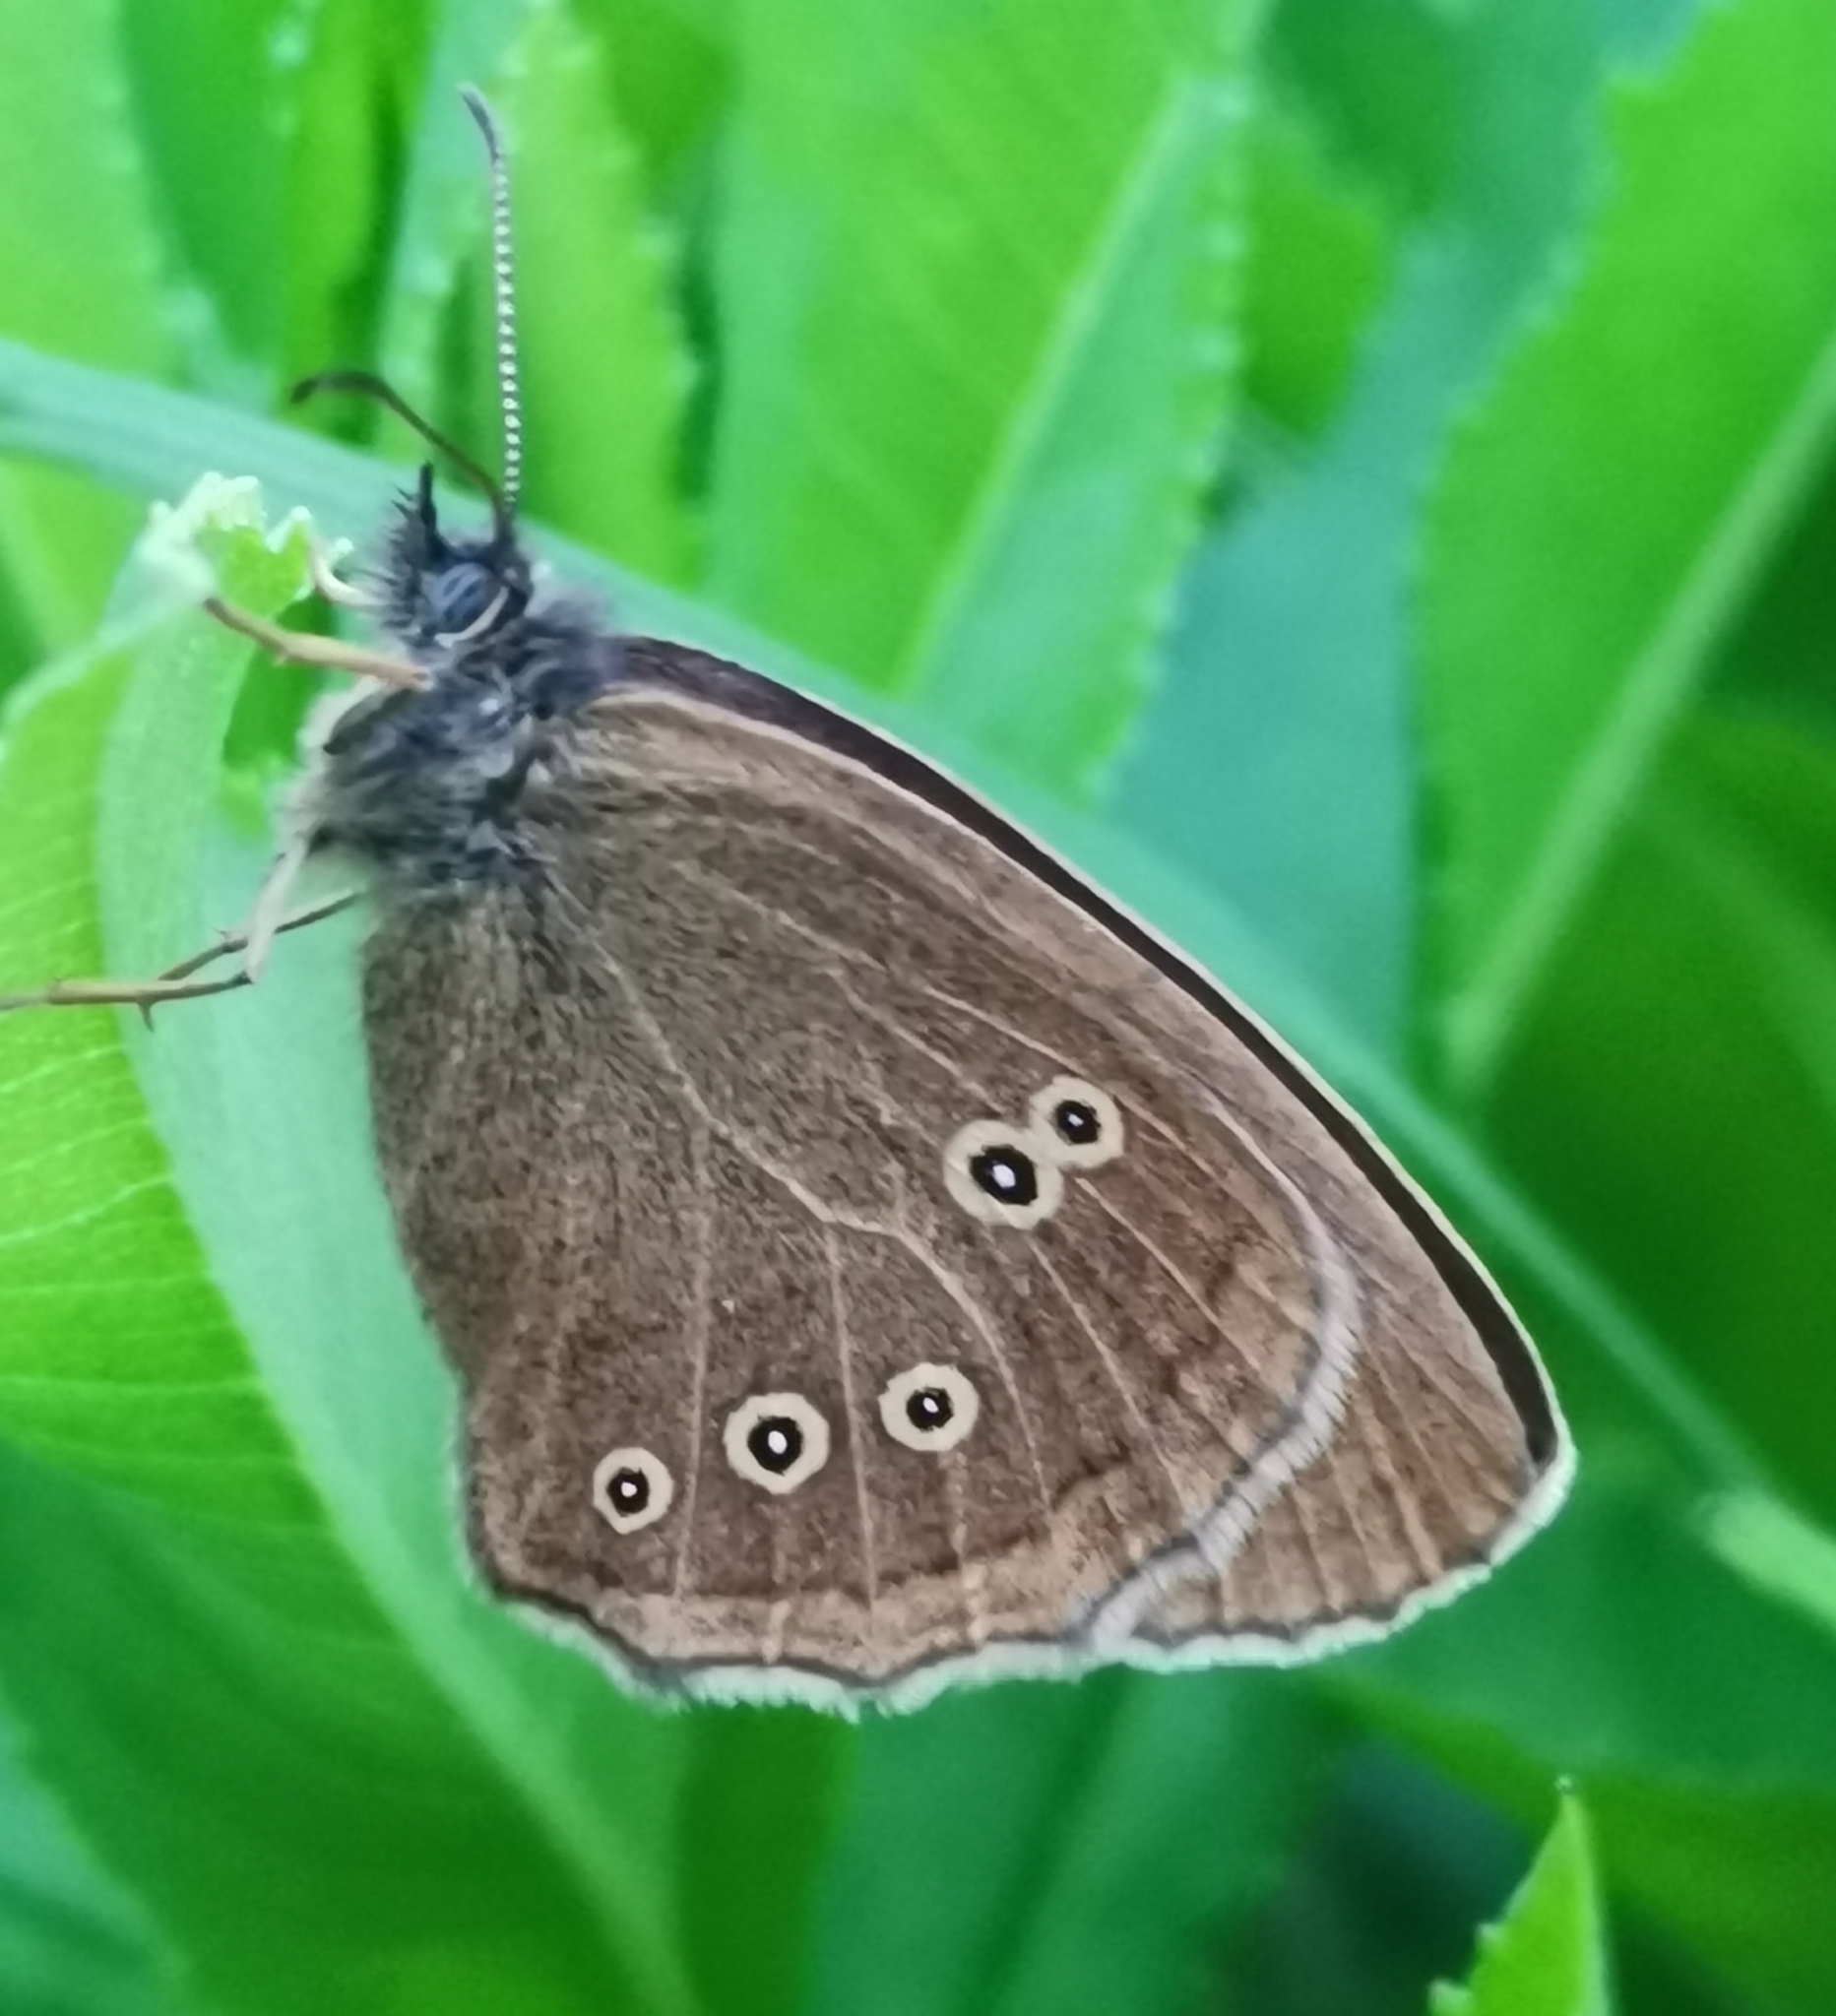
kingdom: Animalia
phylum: Arthropoda
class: Insecta
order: Lepidoptera
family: Nymphalidae
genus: Aphantopus
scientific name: Aphantopus hyperantus
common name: Ringlet
